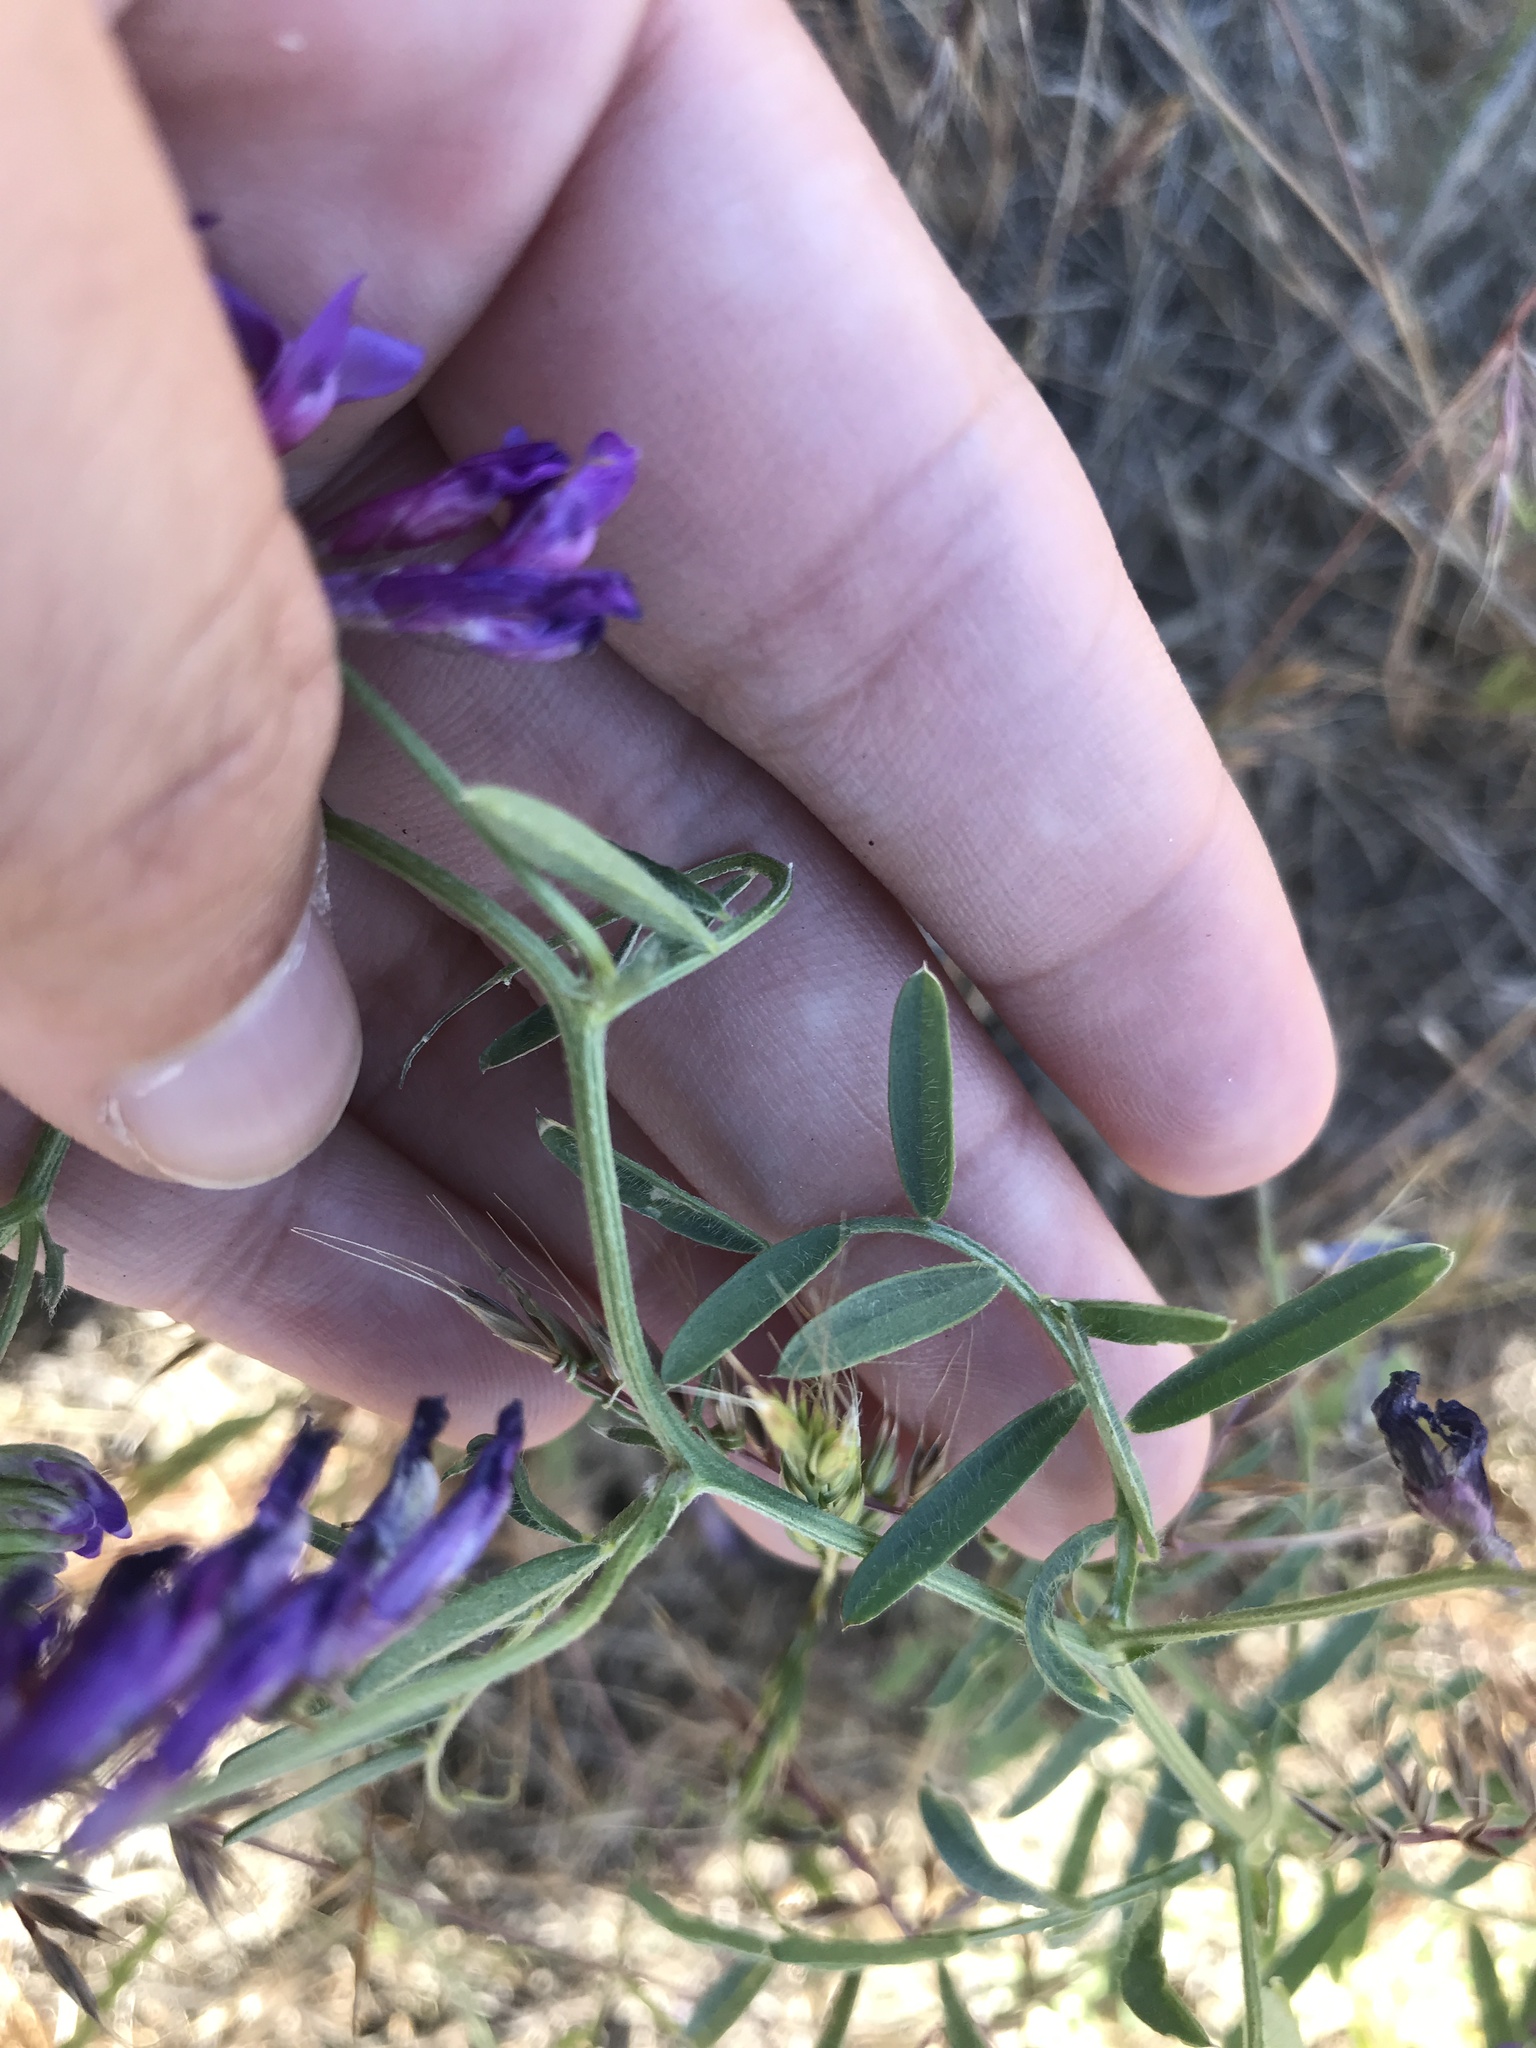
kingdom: Plantae
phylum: Tracheophyta
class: Magnoliopsida
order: Fabales
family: Fabaceae
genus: Vicia
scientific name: Vicia villosa
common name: Fodder vetch
